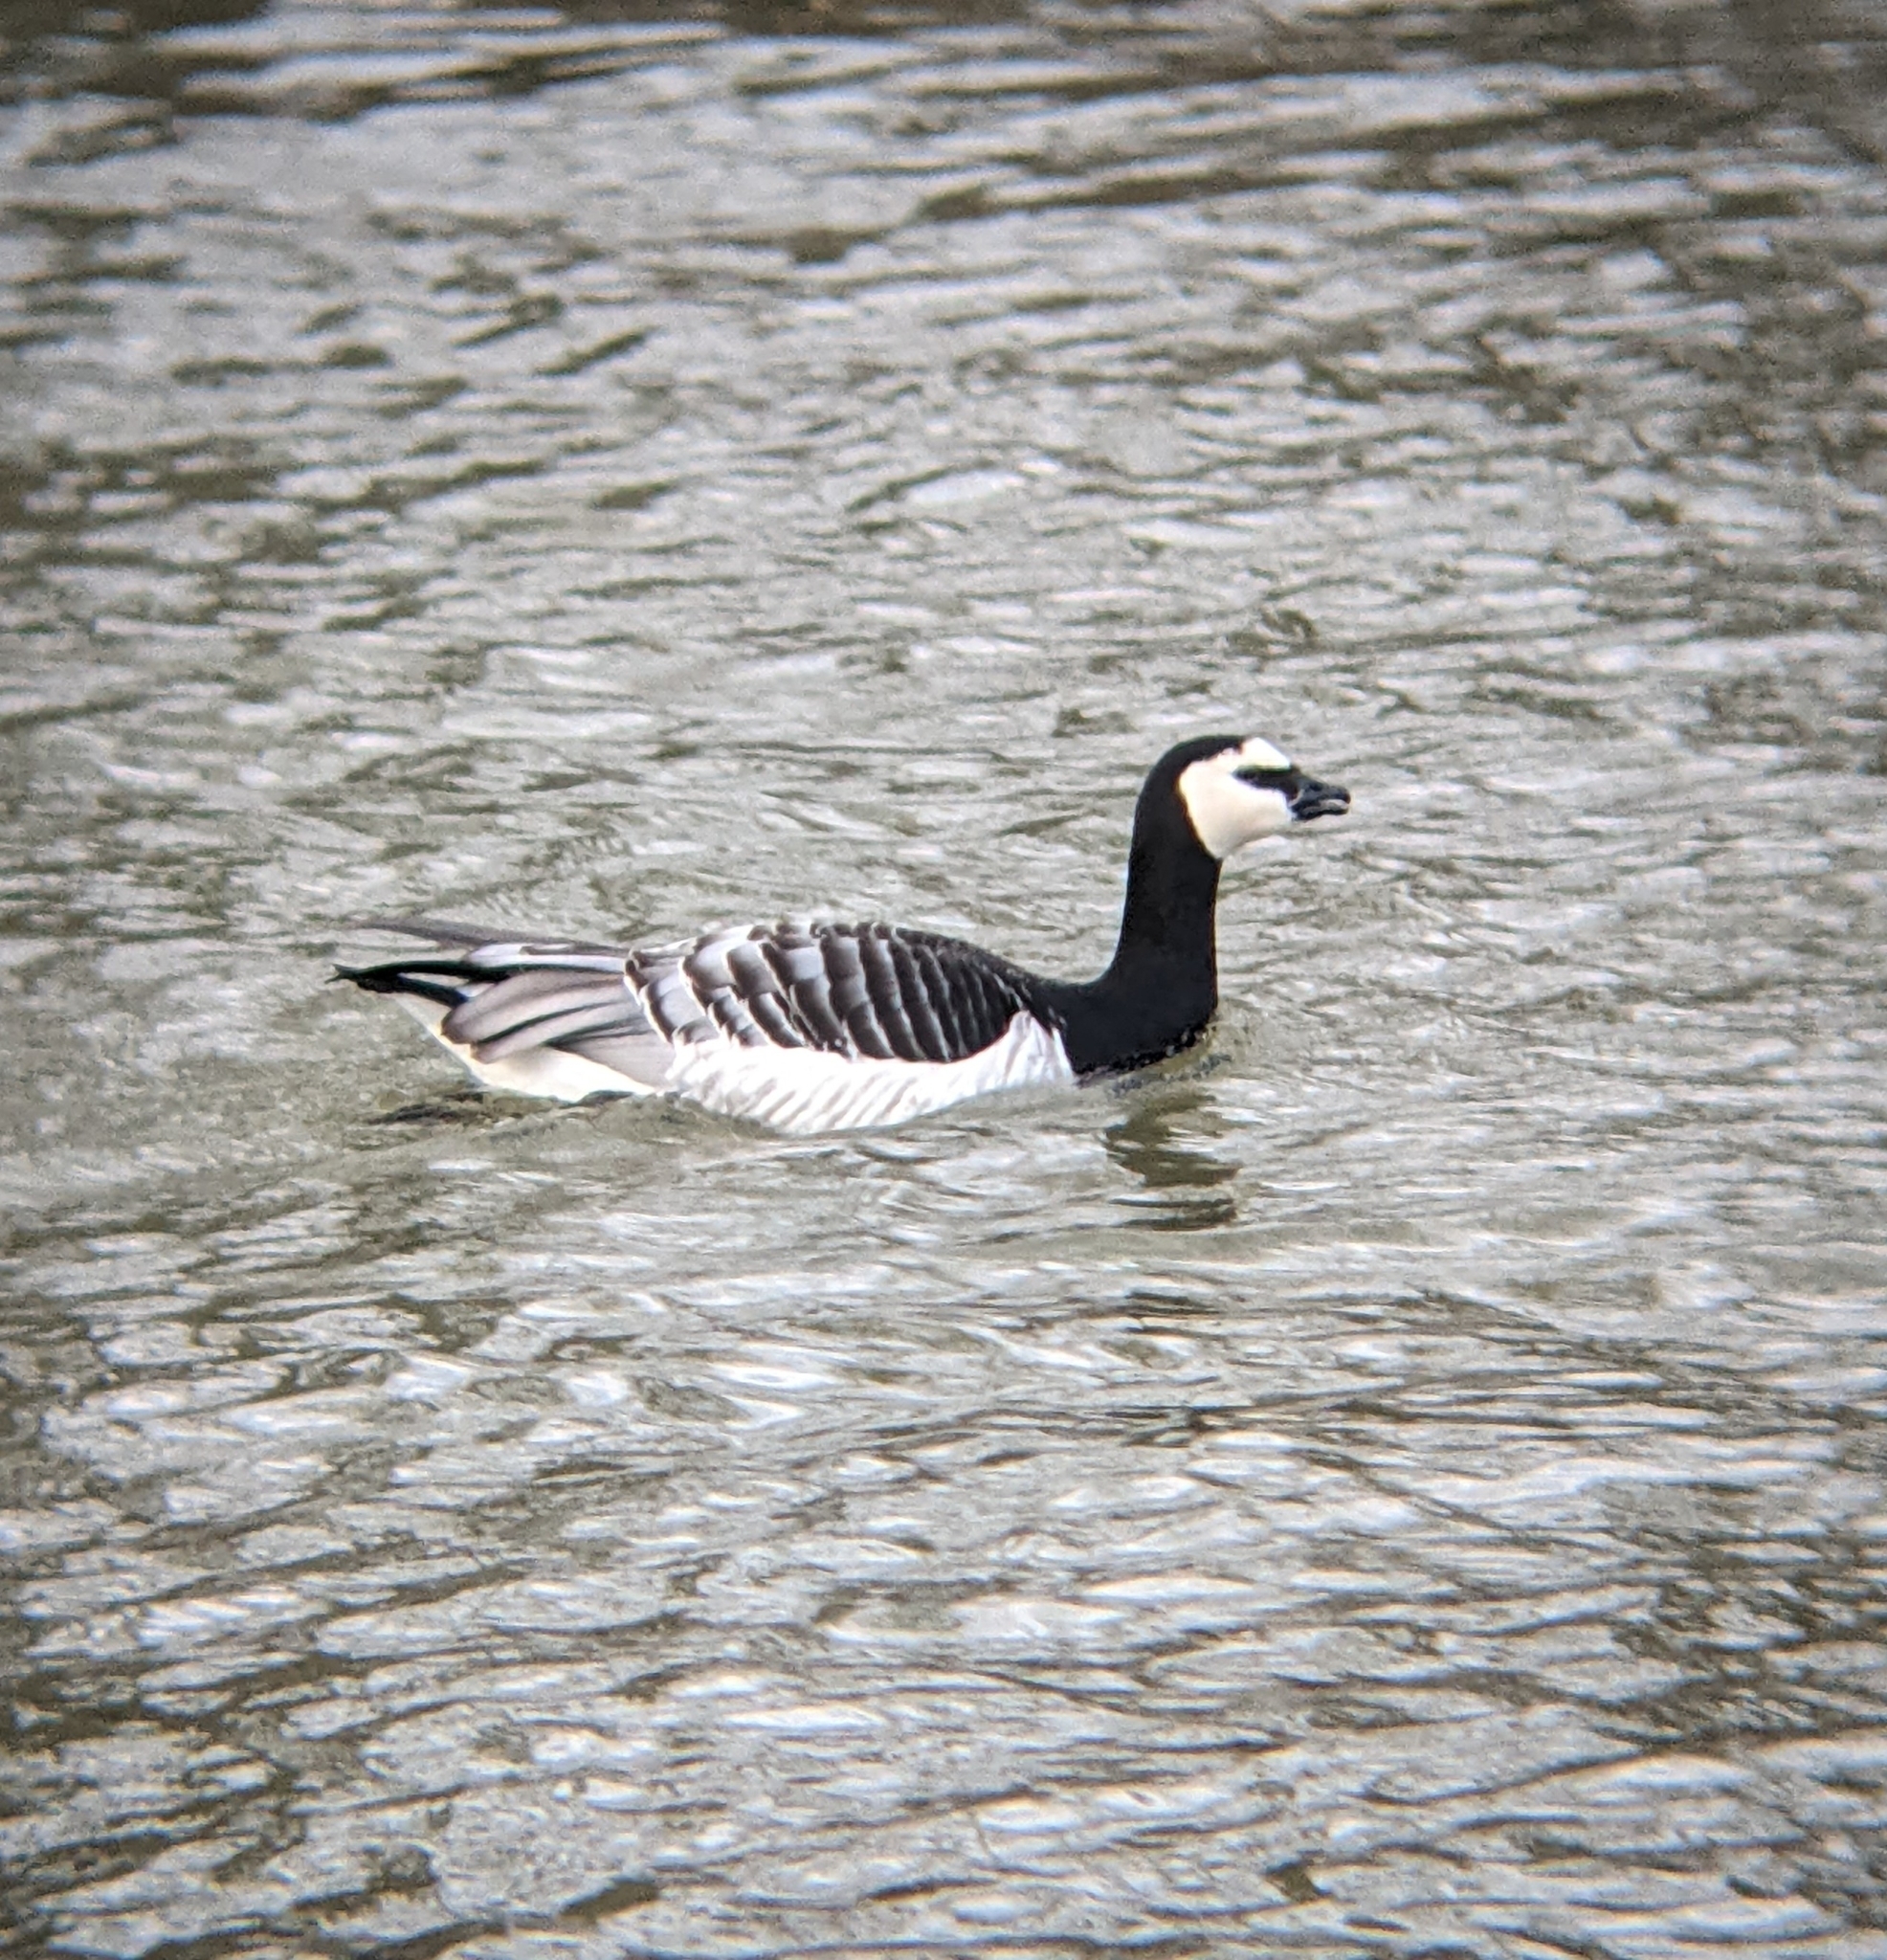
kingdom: Animalia
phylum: Chordata
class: Aves
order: Anseriformes
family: Anatidae
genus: Branta
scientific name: Branta leucopsis
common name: Barnacle goose
